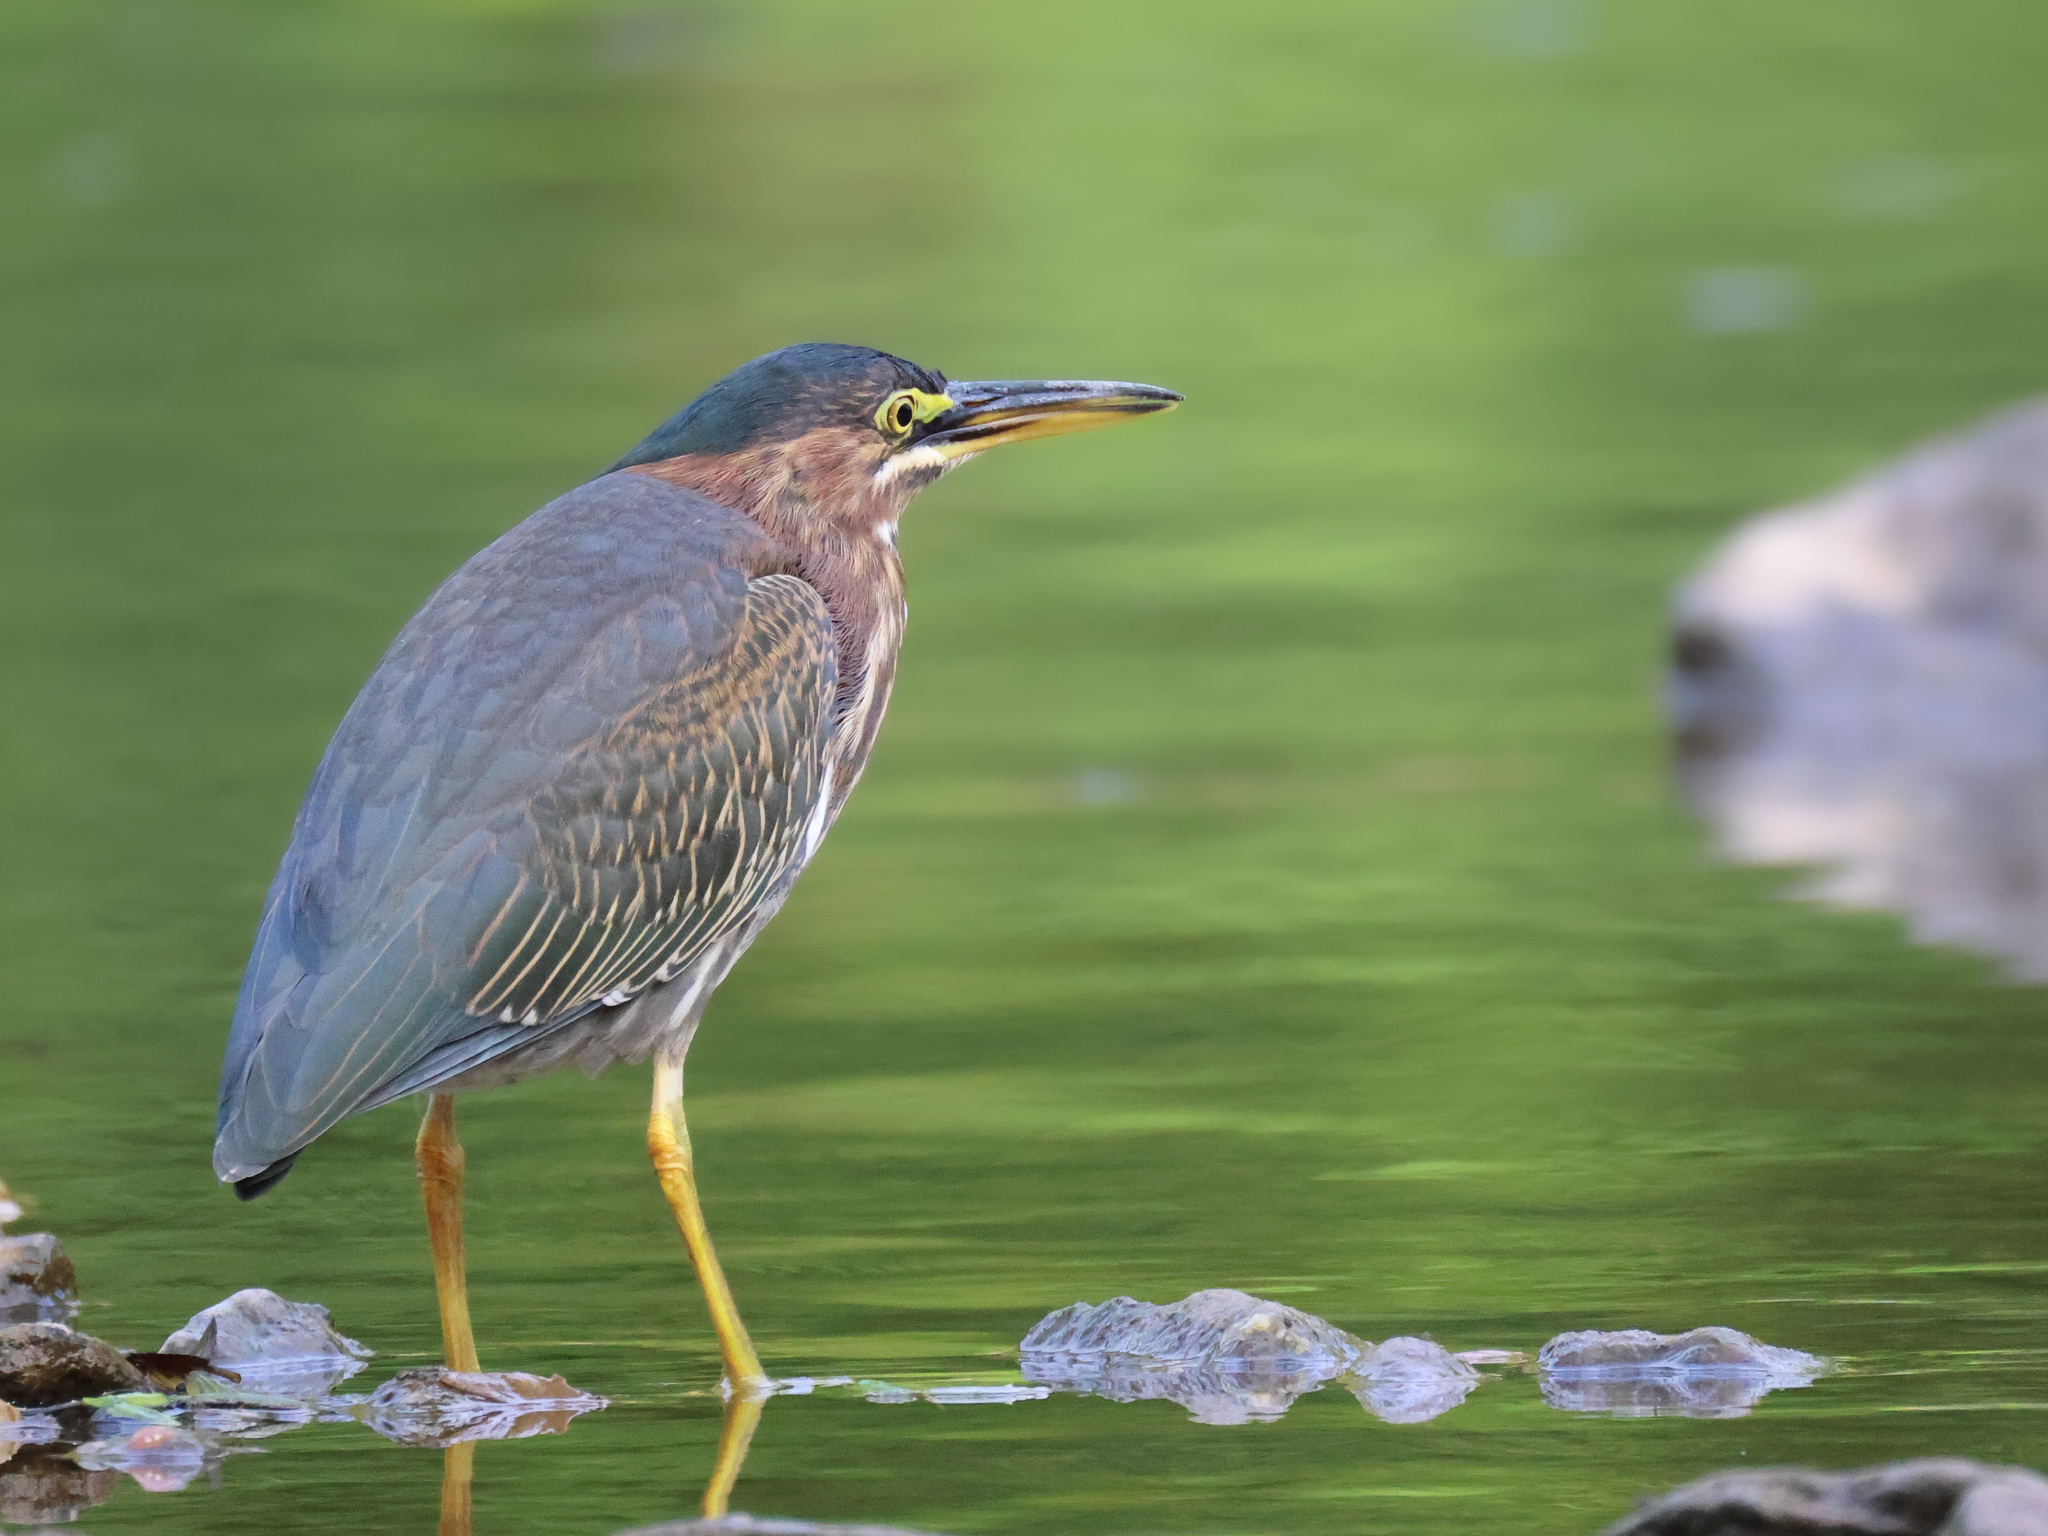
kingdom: Animalia
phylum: Chordata
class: Aves
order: Pelecaniformes
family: Ardeidae
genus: Butorides
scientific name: Butorides virescens
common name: Green heron
